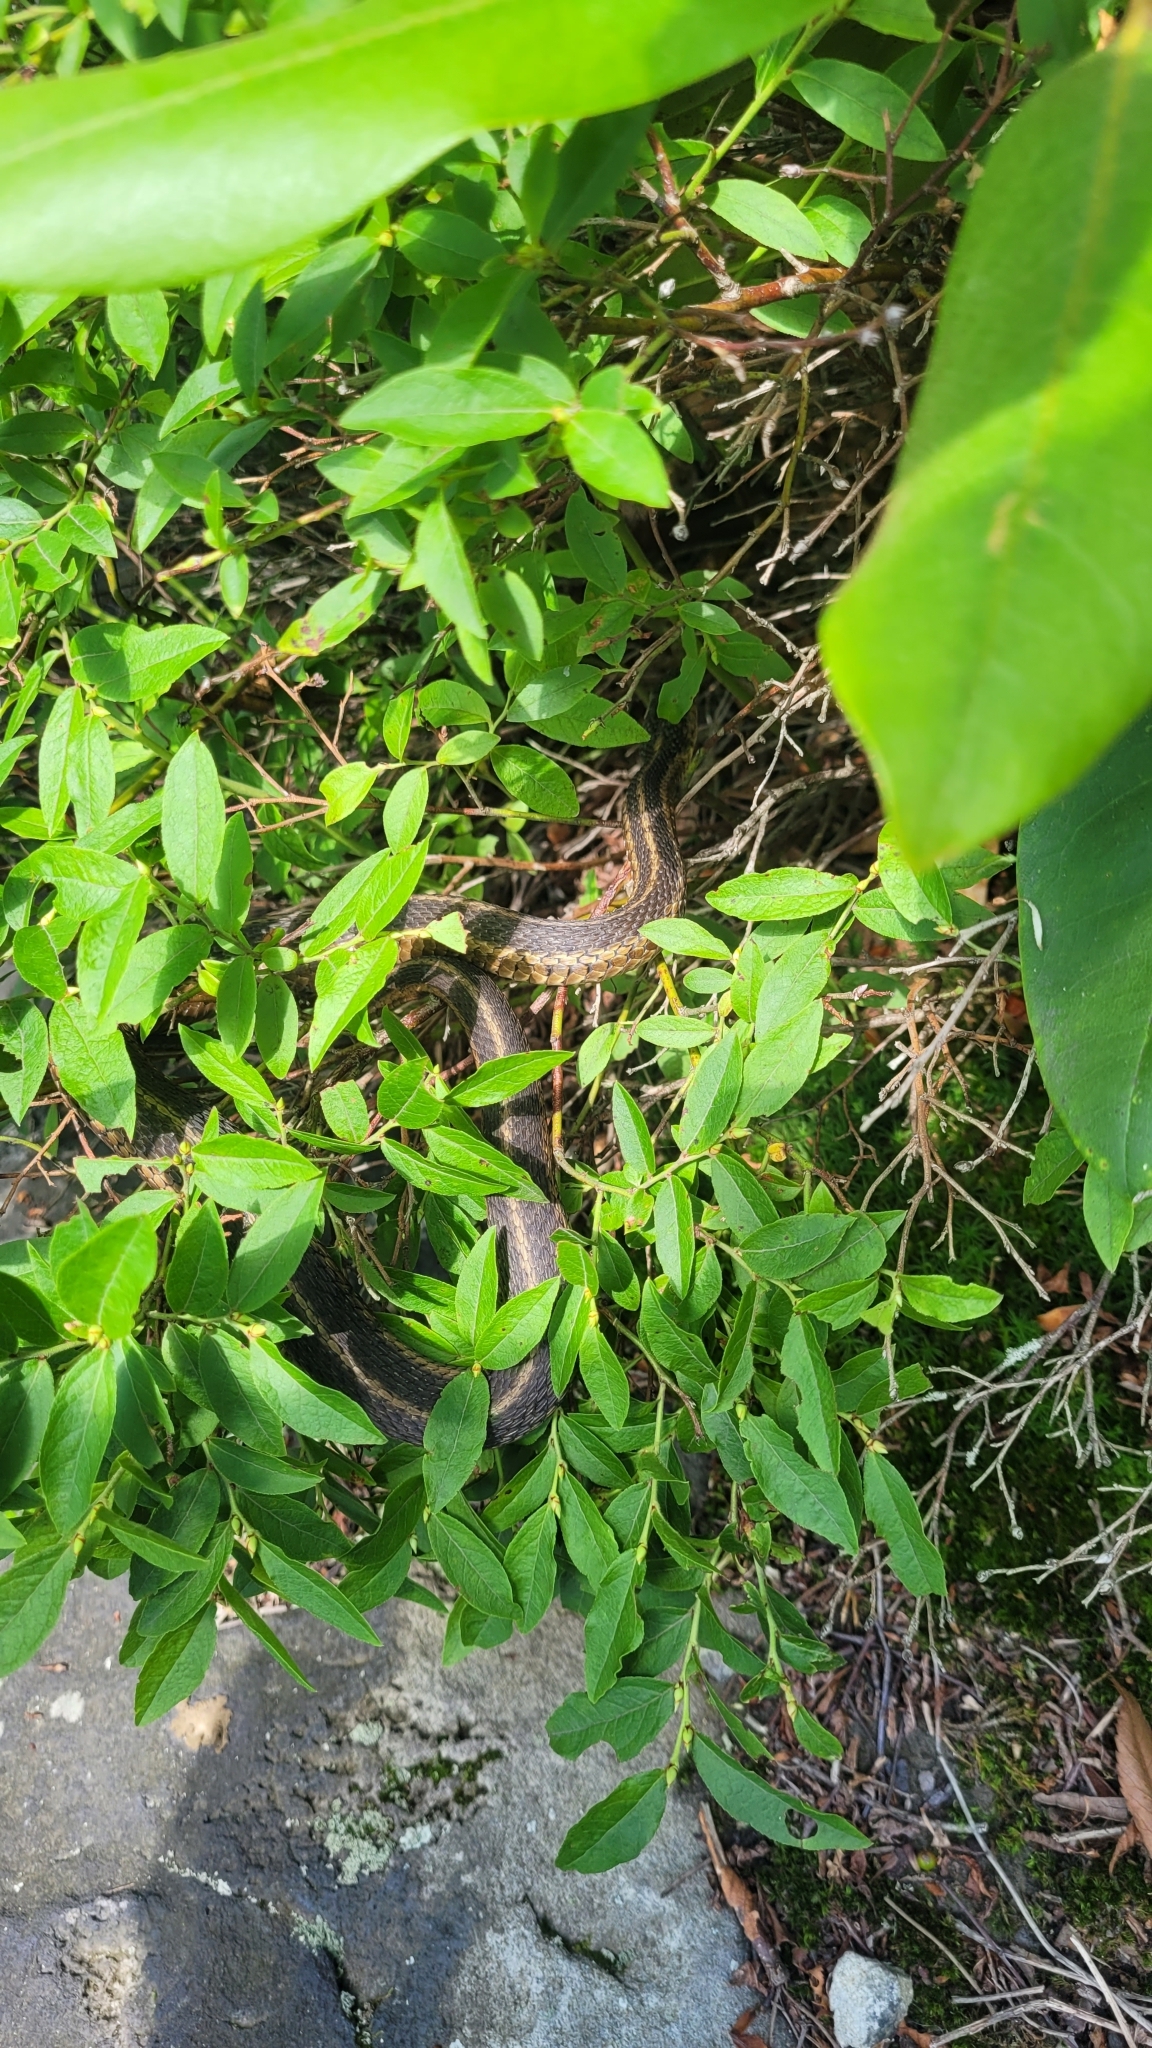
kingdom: Animalia
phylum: Chordata
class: Squamata
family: Colubridae
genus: Thamnophis
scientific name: Thamnophis sirtalis
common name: Common garter snake
